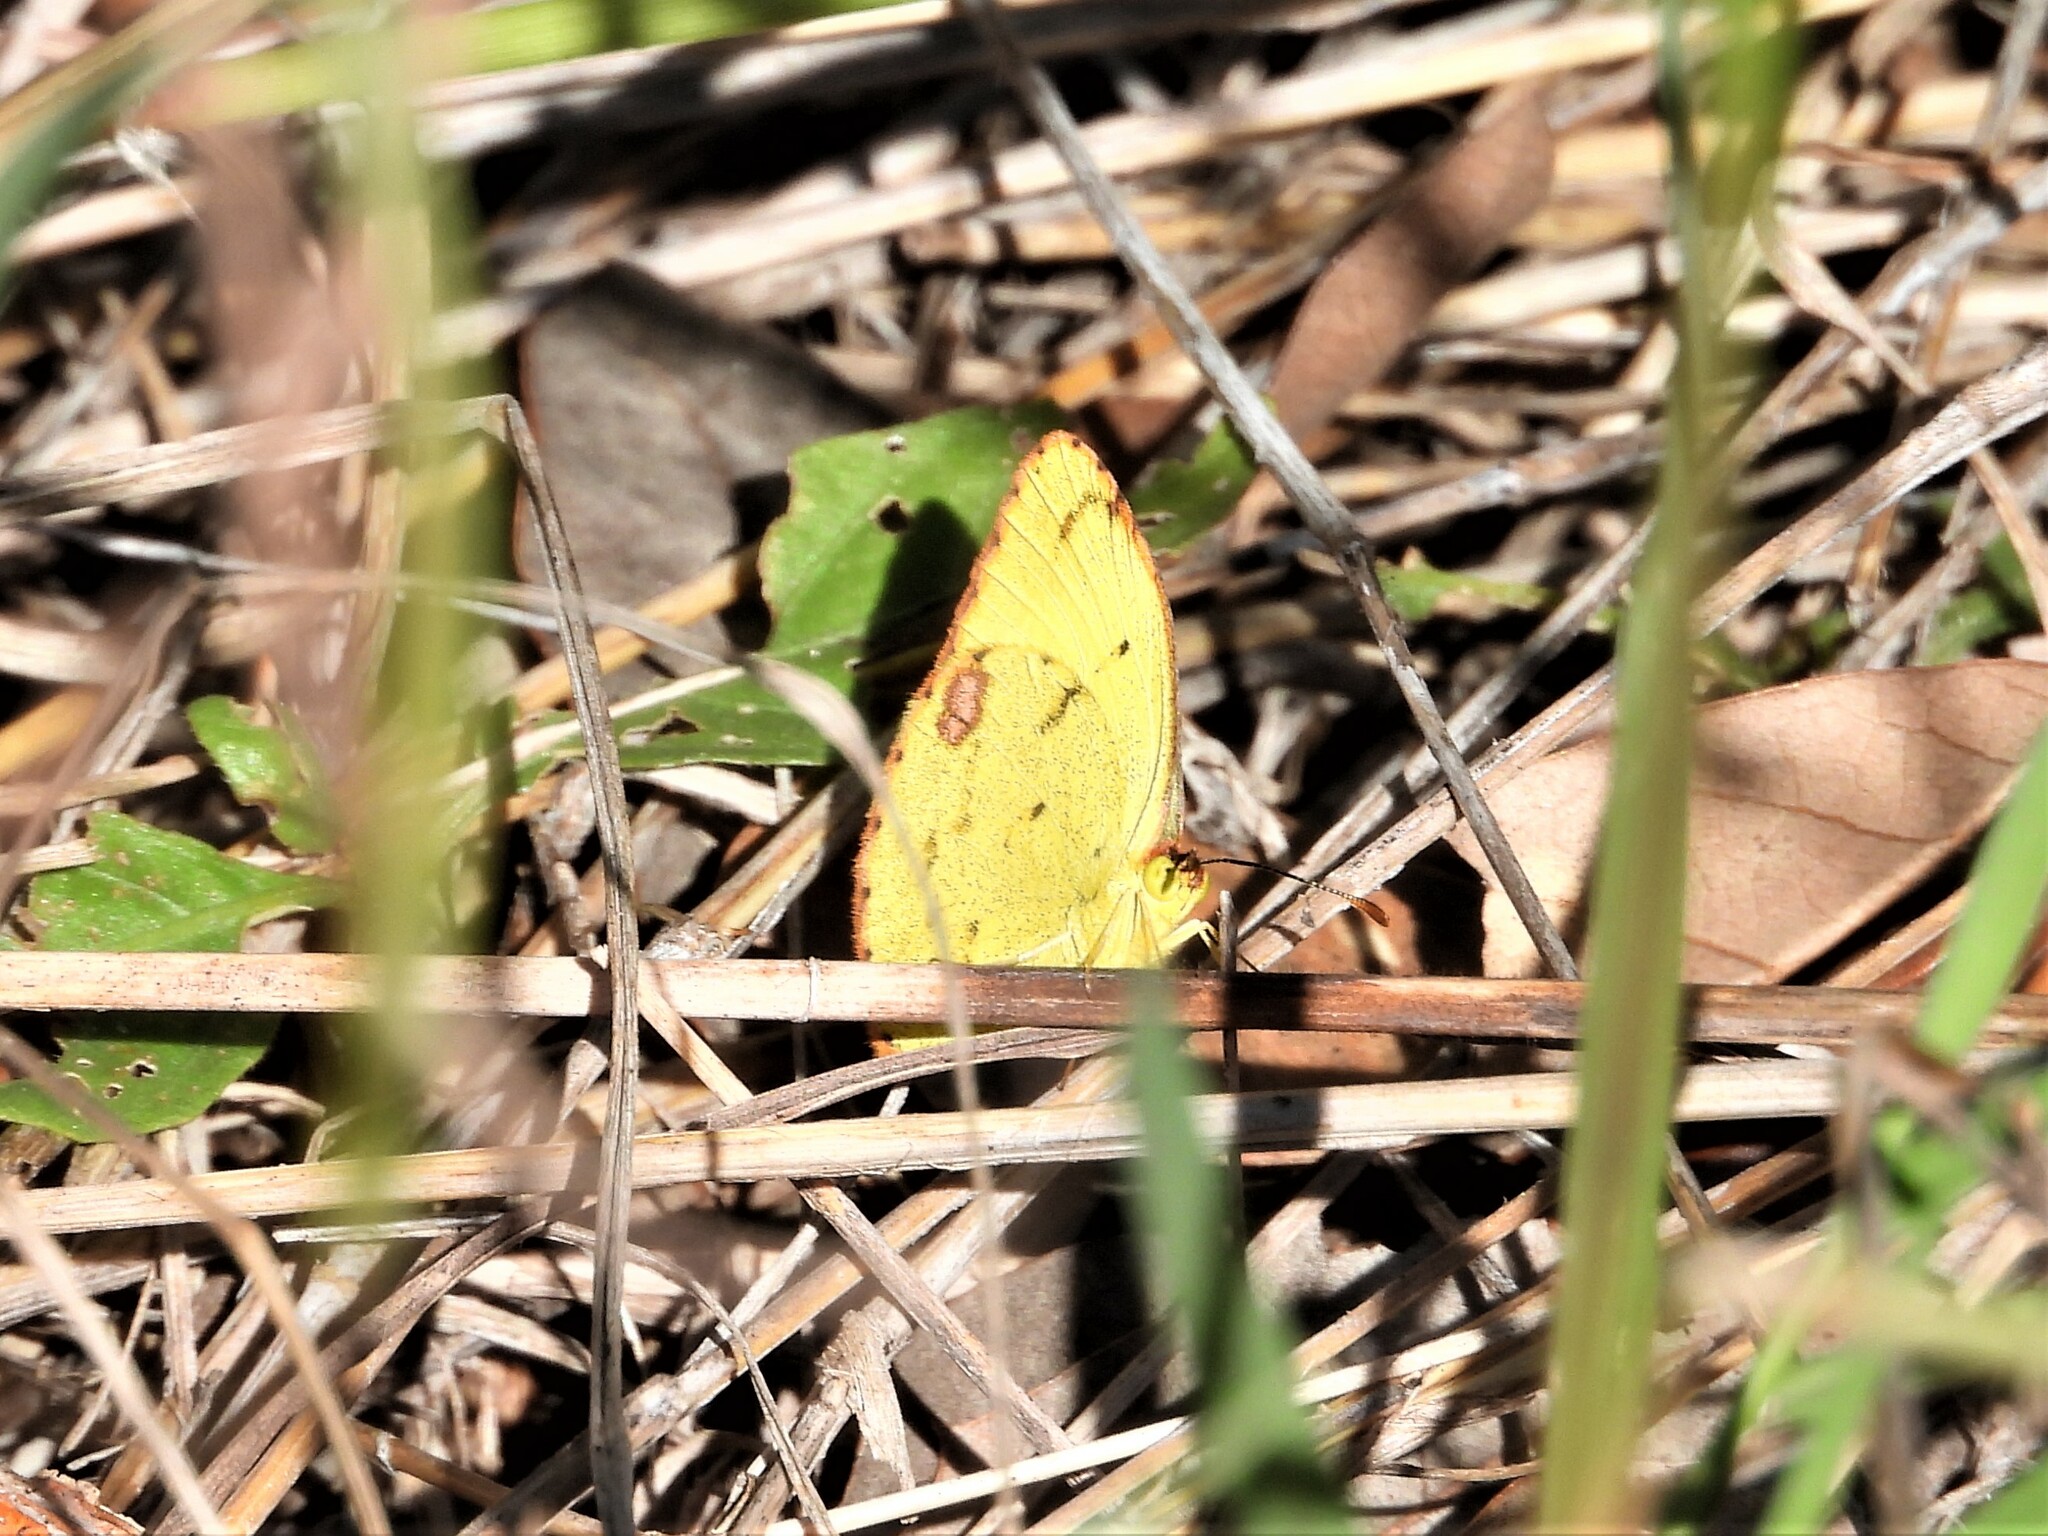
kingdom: Animalia
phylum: Arthropoda
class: Insecta
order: Lepidoptera
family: Pieridae
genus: Pyrisitia
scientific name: Pyrisitia lisa
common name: Little yellow
